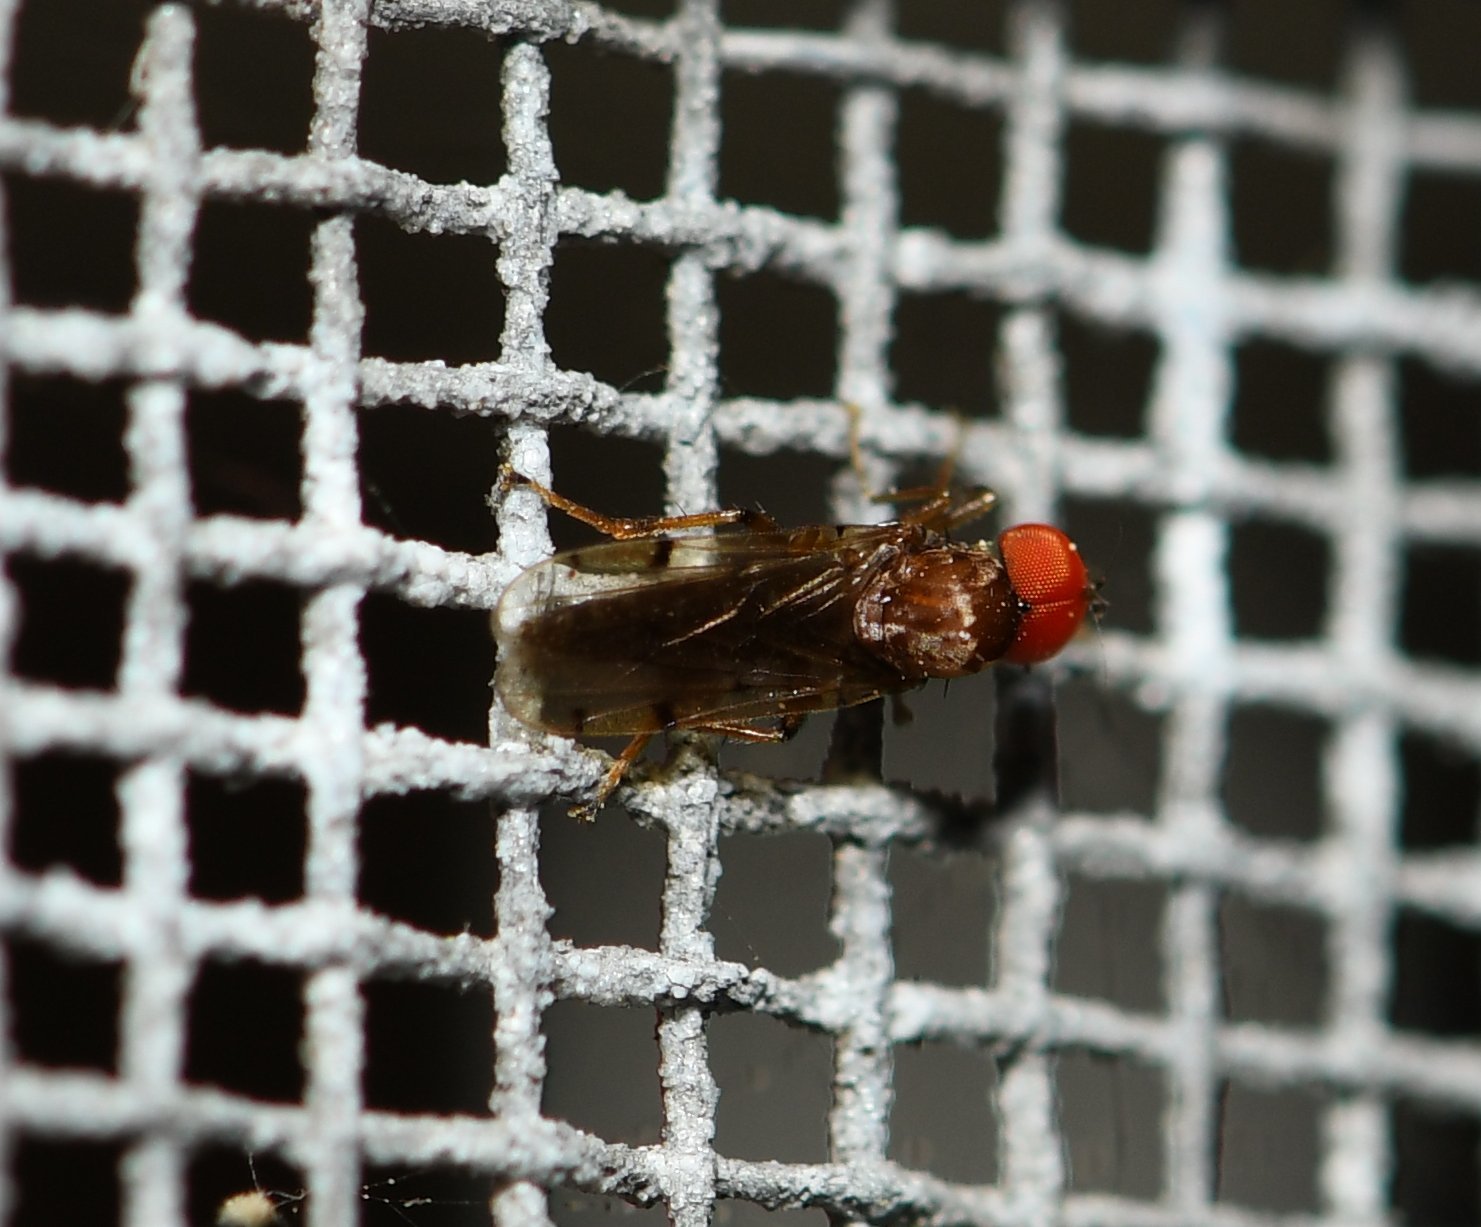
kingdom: Animalia
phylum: Arthropoda
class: Insecta
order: Diptera
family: Hybotidae
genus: Syneches
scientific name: Syneches simplex
